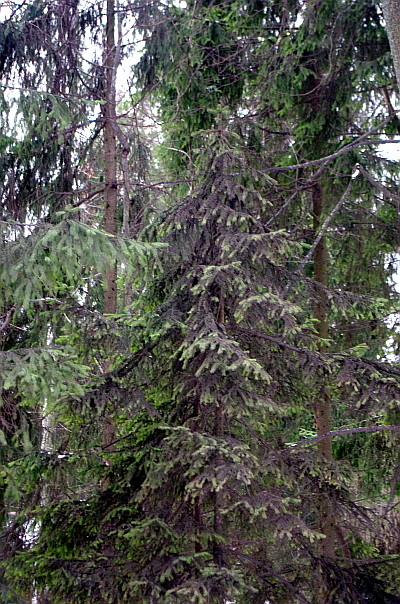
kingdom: Plantae
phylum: Tracheophyta
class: Pinopsida
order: Pinales
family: Pinaceae
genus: Picea
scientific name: Picea abies
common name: Norway spruce
